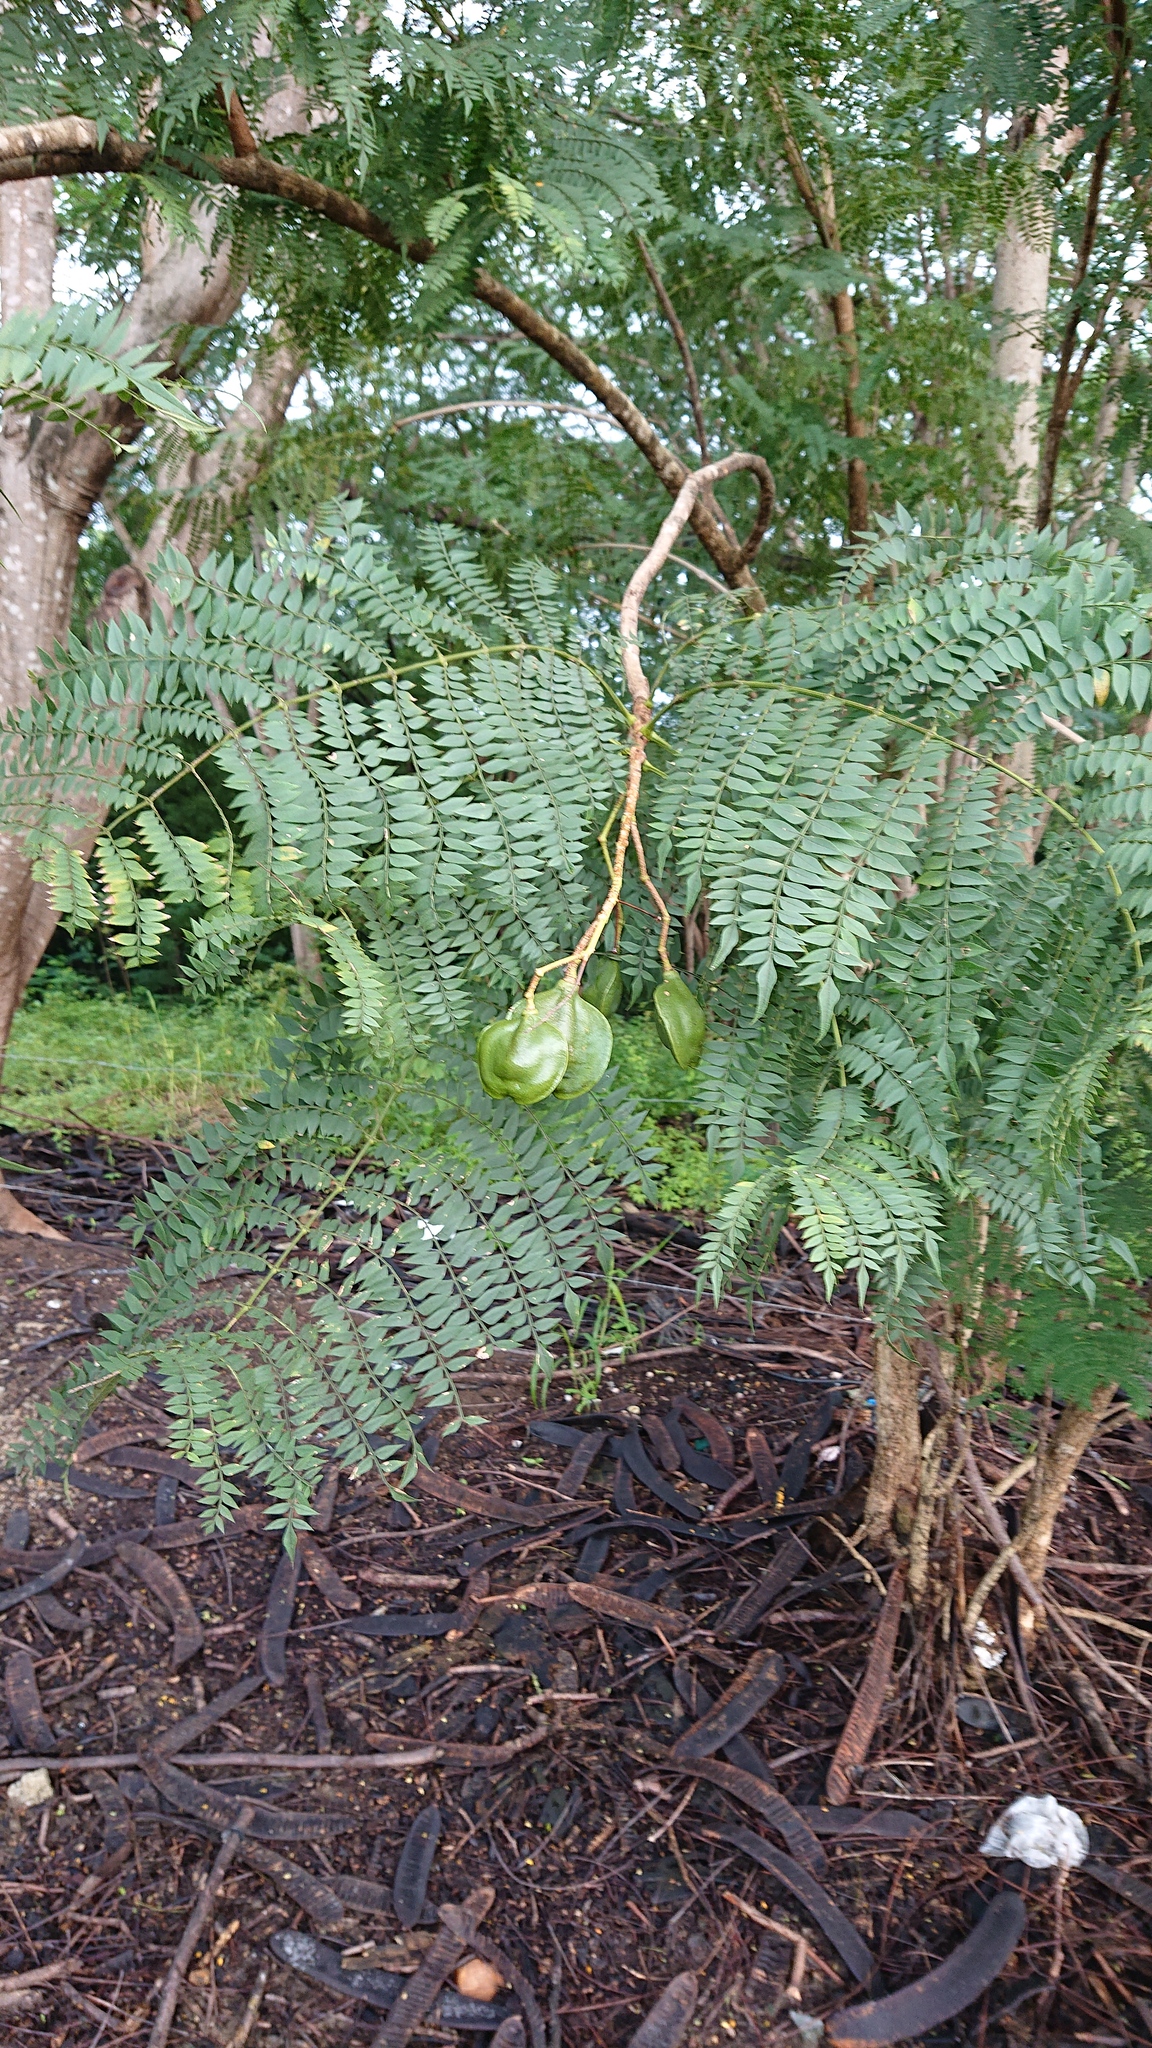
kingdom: Plantae
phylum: Tracheophyta
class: Magnoliopsida
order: Lamiales
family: Bignoniaceae
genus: Jacaranda
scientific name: Jacaranda mimosifolia
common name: Black poui
